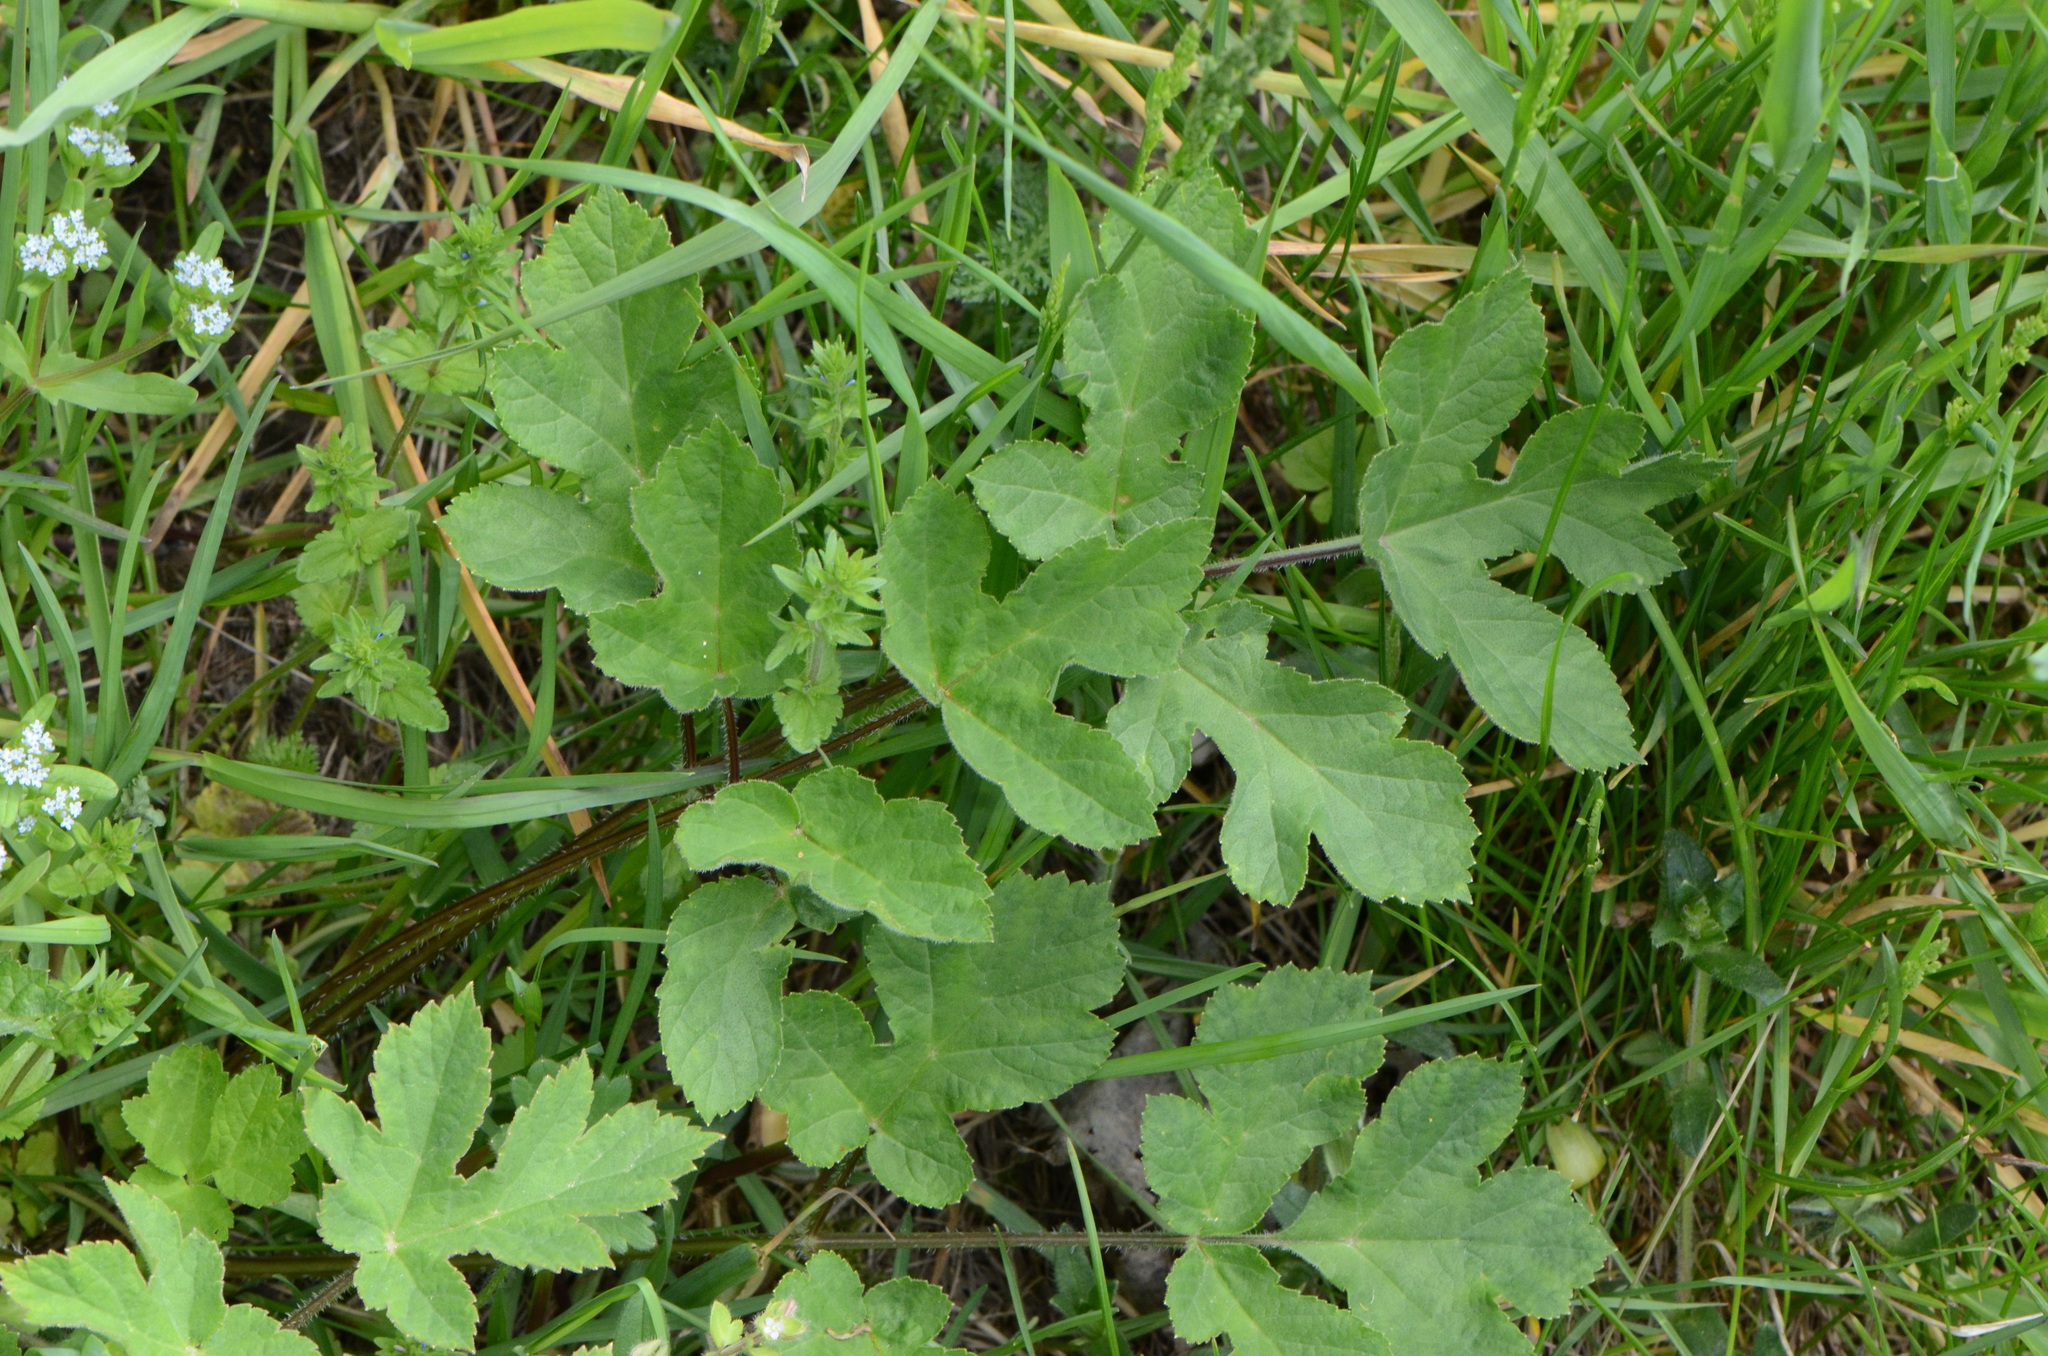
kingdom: Plantae
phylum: Tracheophyta
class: Magnoliopsida
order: Apiales
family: Apiaceae
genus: Heracleum
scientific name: Heracleum sphondylium
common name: Hogweed
